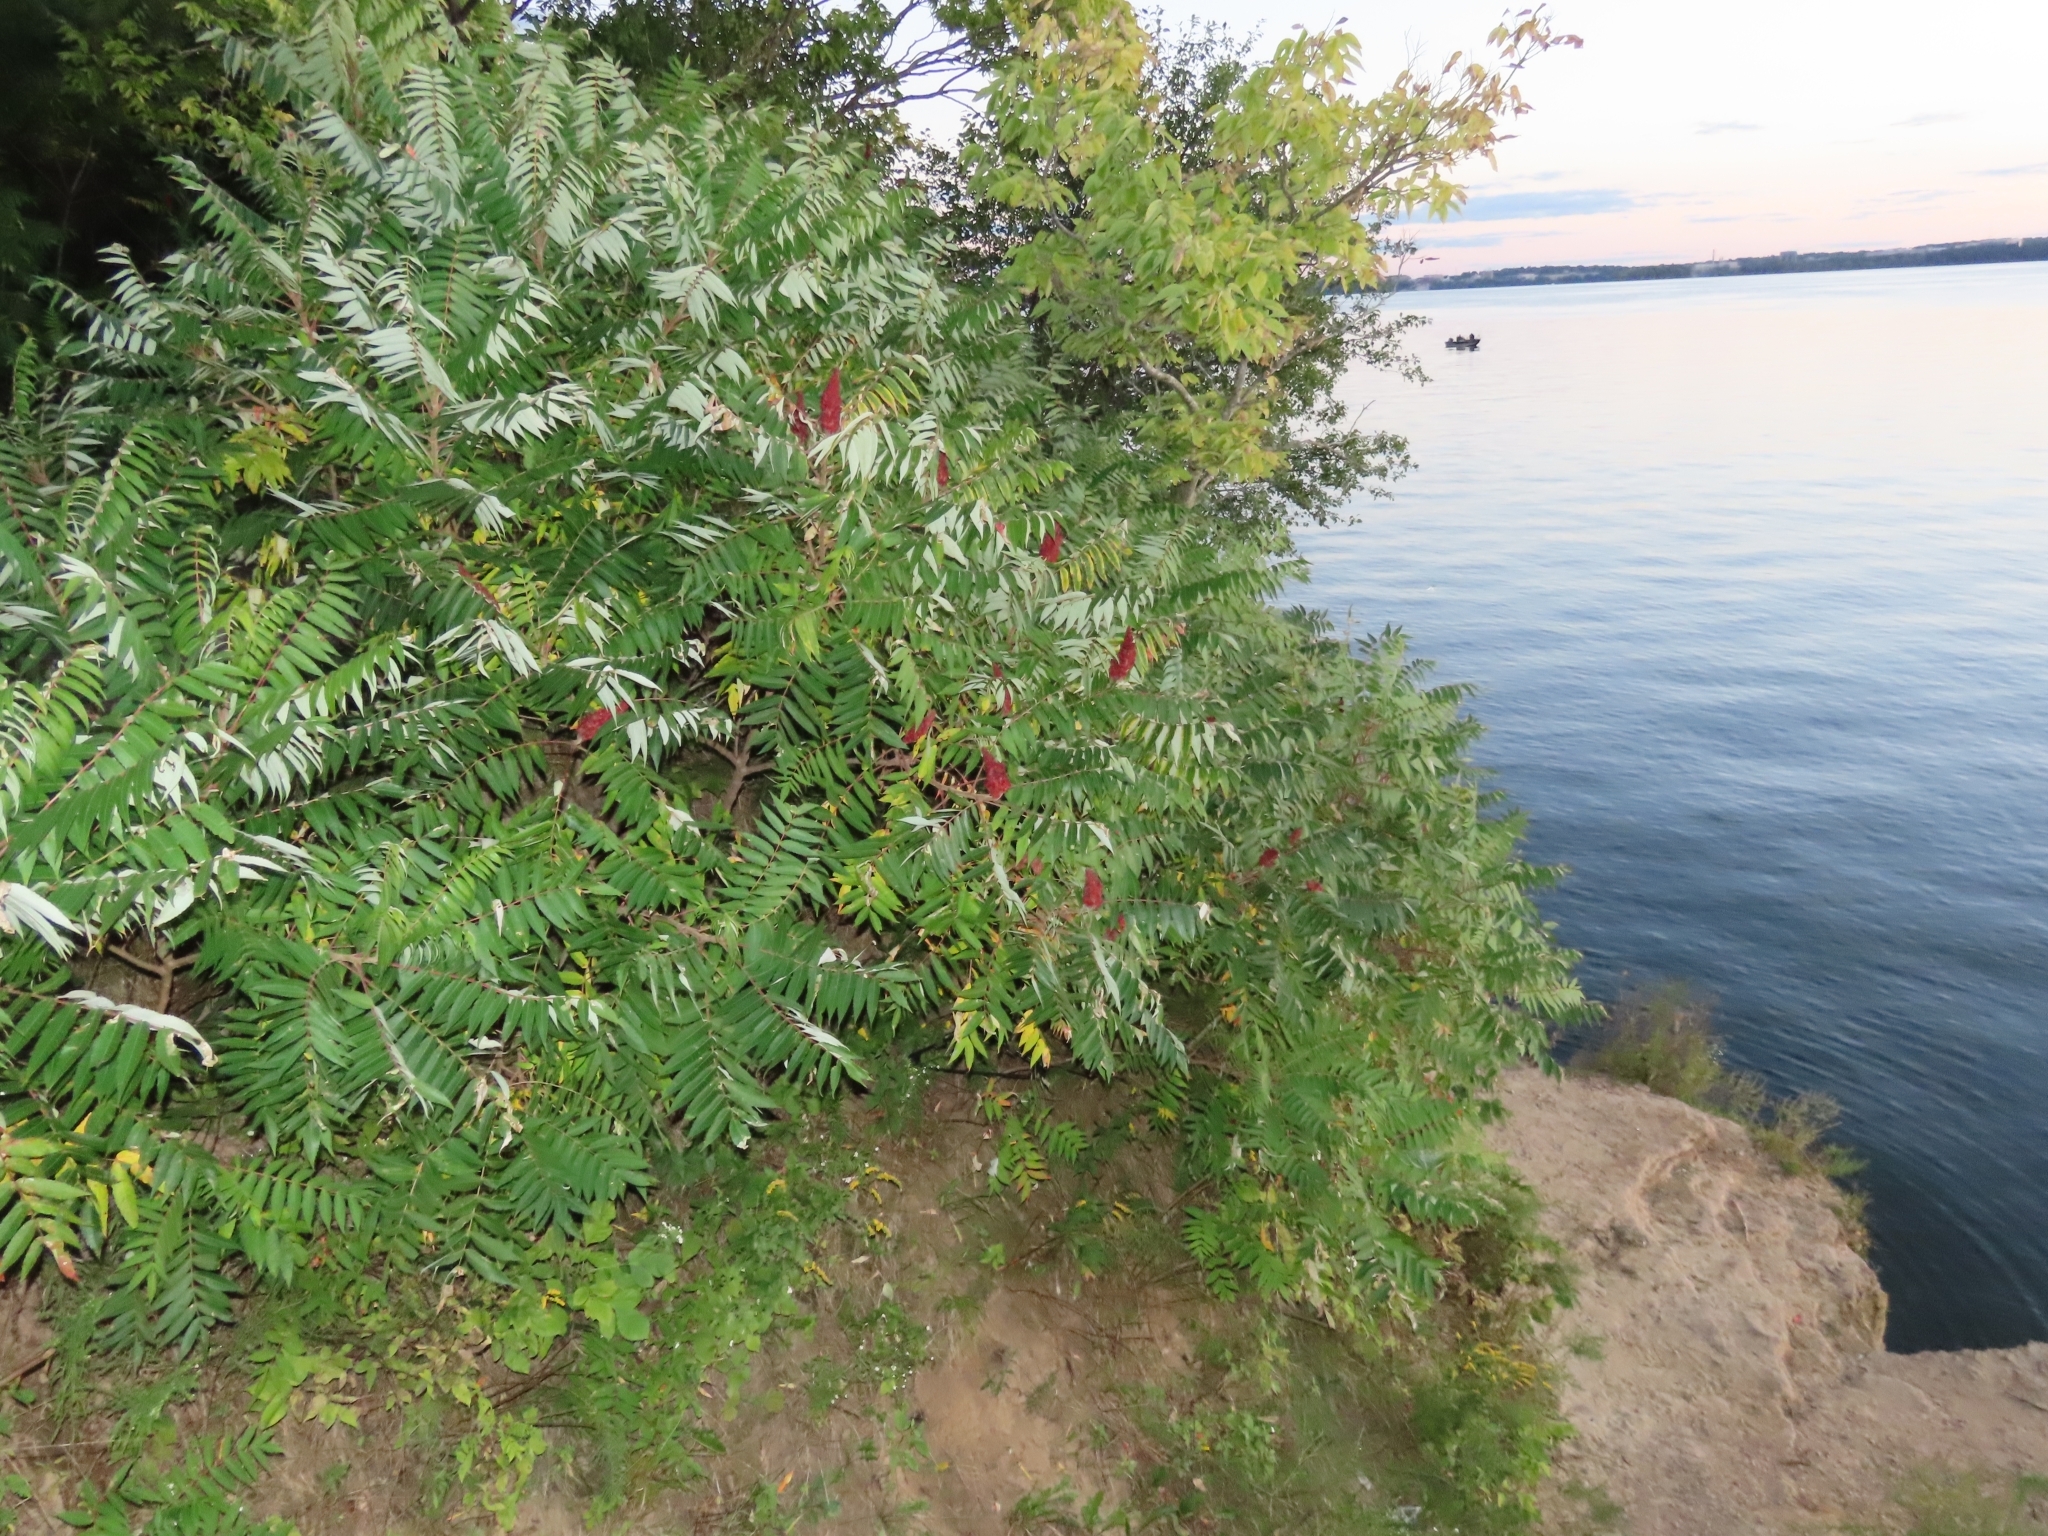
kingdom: Plantae
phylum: Tracheophyta
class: Magnoliopsida
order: Sapindales
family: Anacardiaceae
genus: Rhus
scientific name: Rhus typhina
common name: Staghorn sumac
